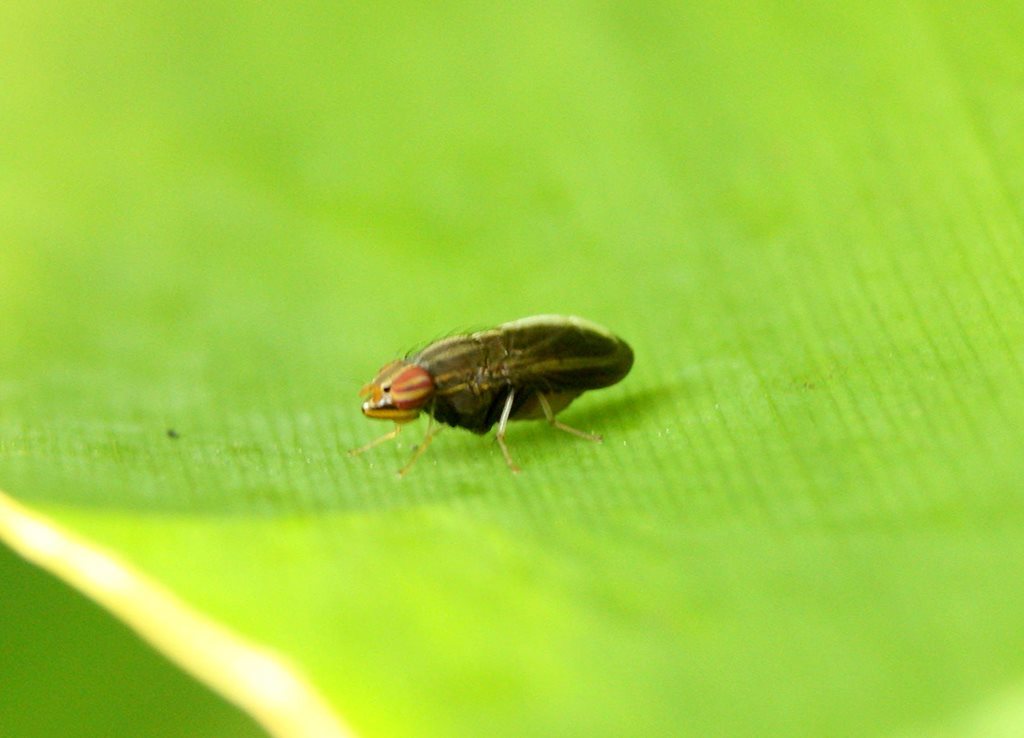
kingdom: Animalia
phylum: Arthropoda
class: Insecta
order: Diptera
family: Lauxaniidae
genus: Cephaloconus
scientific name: Cephaloconus tenebrosus
